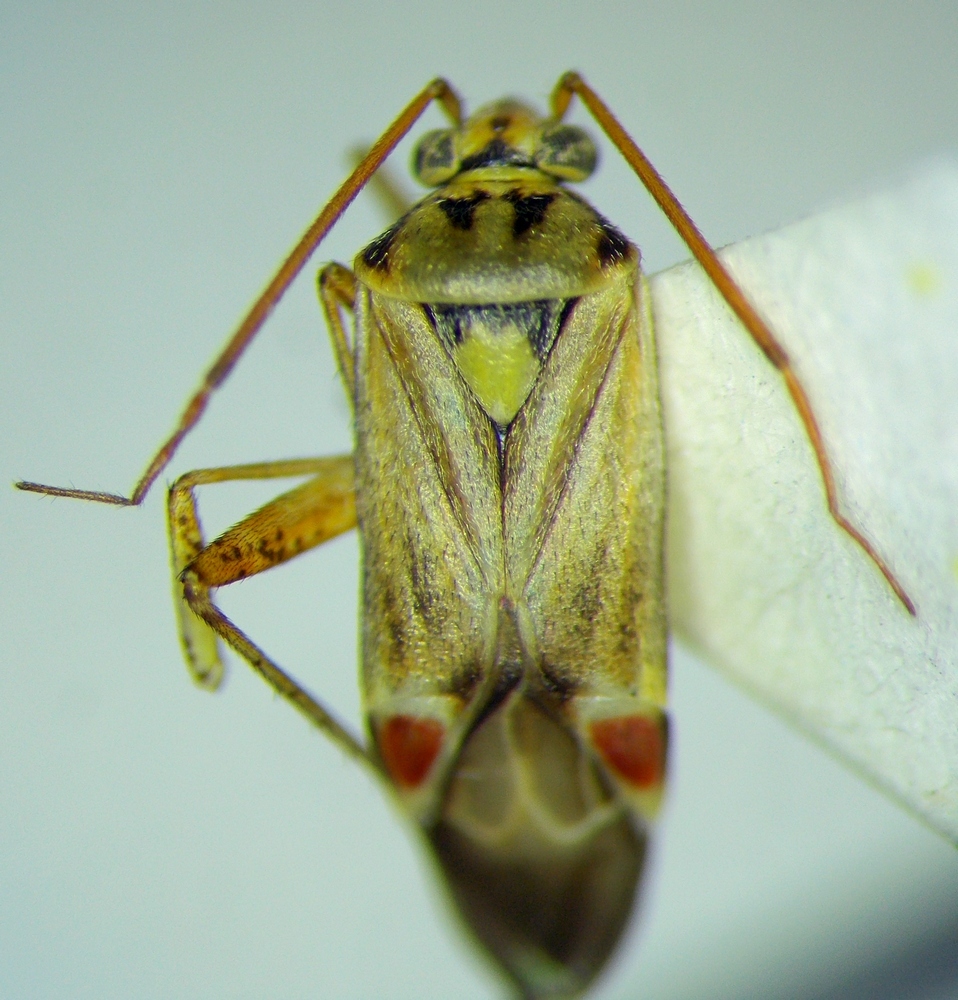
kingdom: Animalia
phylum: Arthropoda
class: Insecta
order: Hemiptera
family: Miridae
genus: Polymerus
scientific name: Polymerus vulneratus
